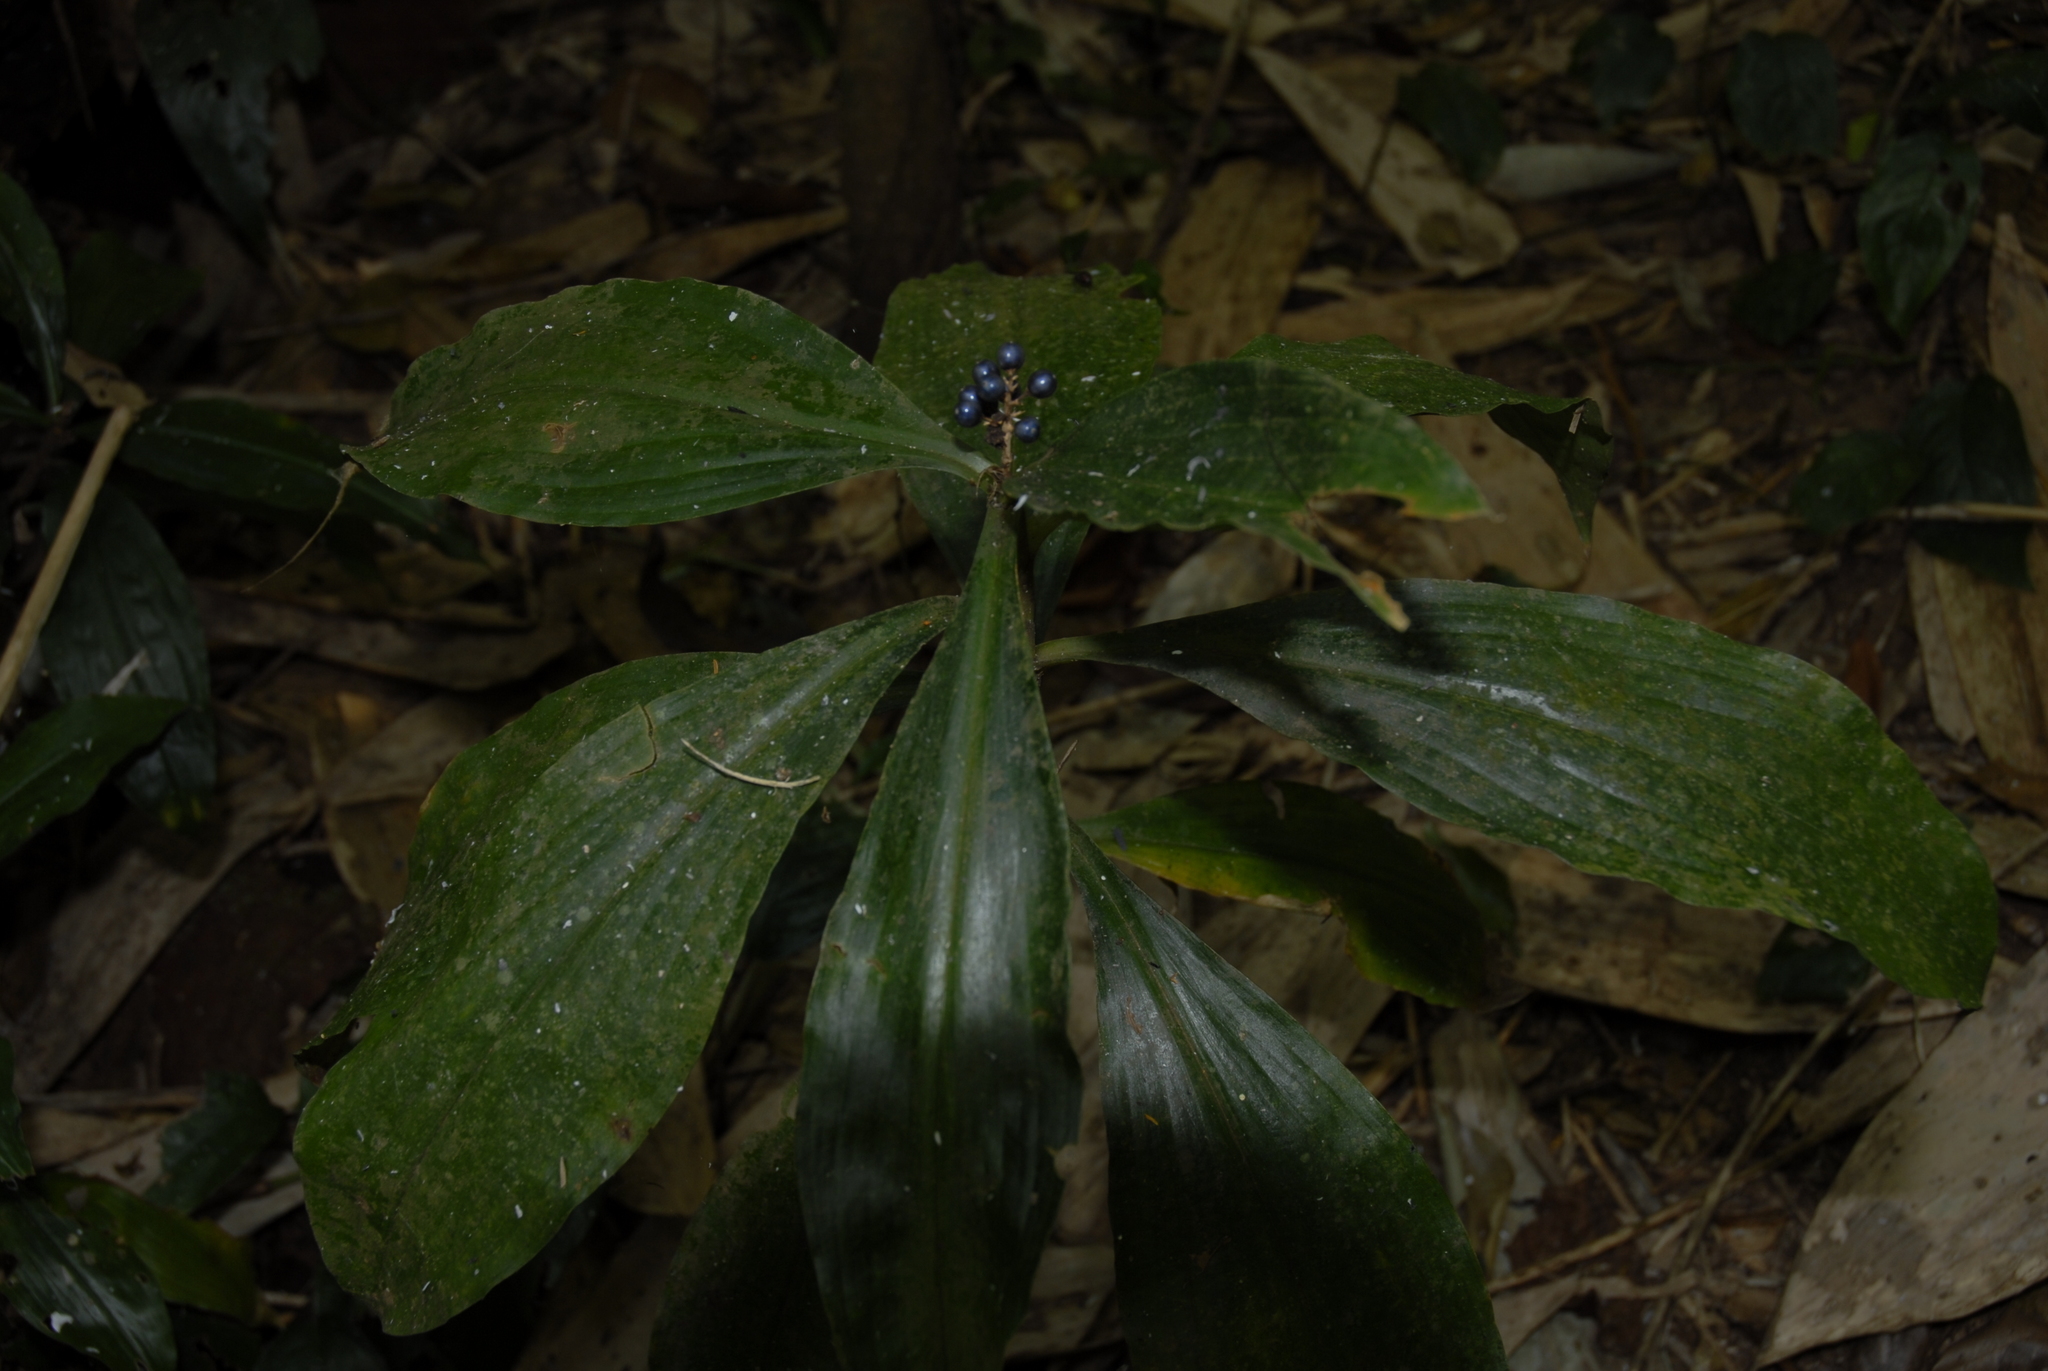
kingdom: Plantae
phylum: Tracheophyta
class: Liliopsida
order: Commelinales
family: Commelinaceae
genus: Pollia
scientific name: Pollia condensata
